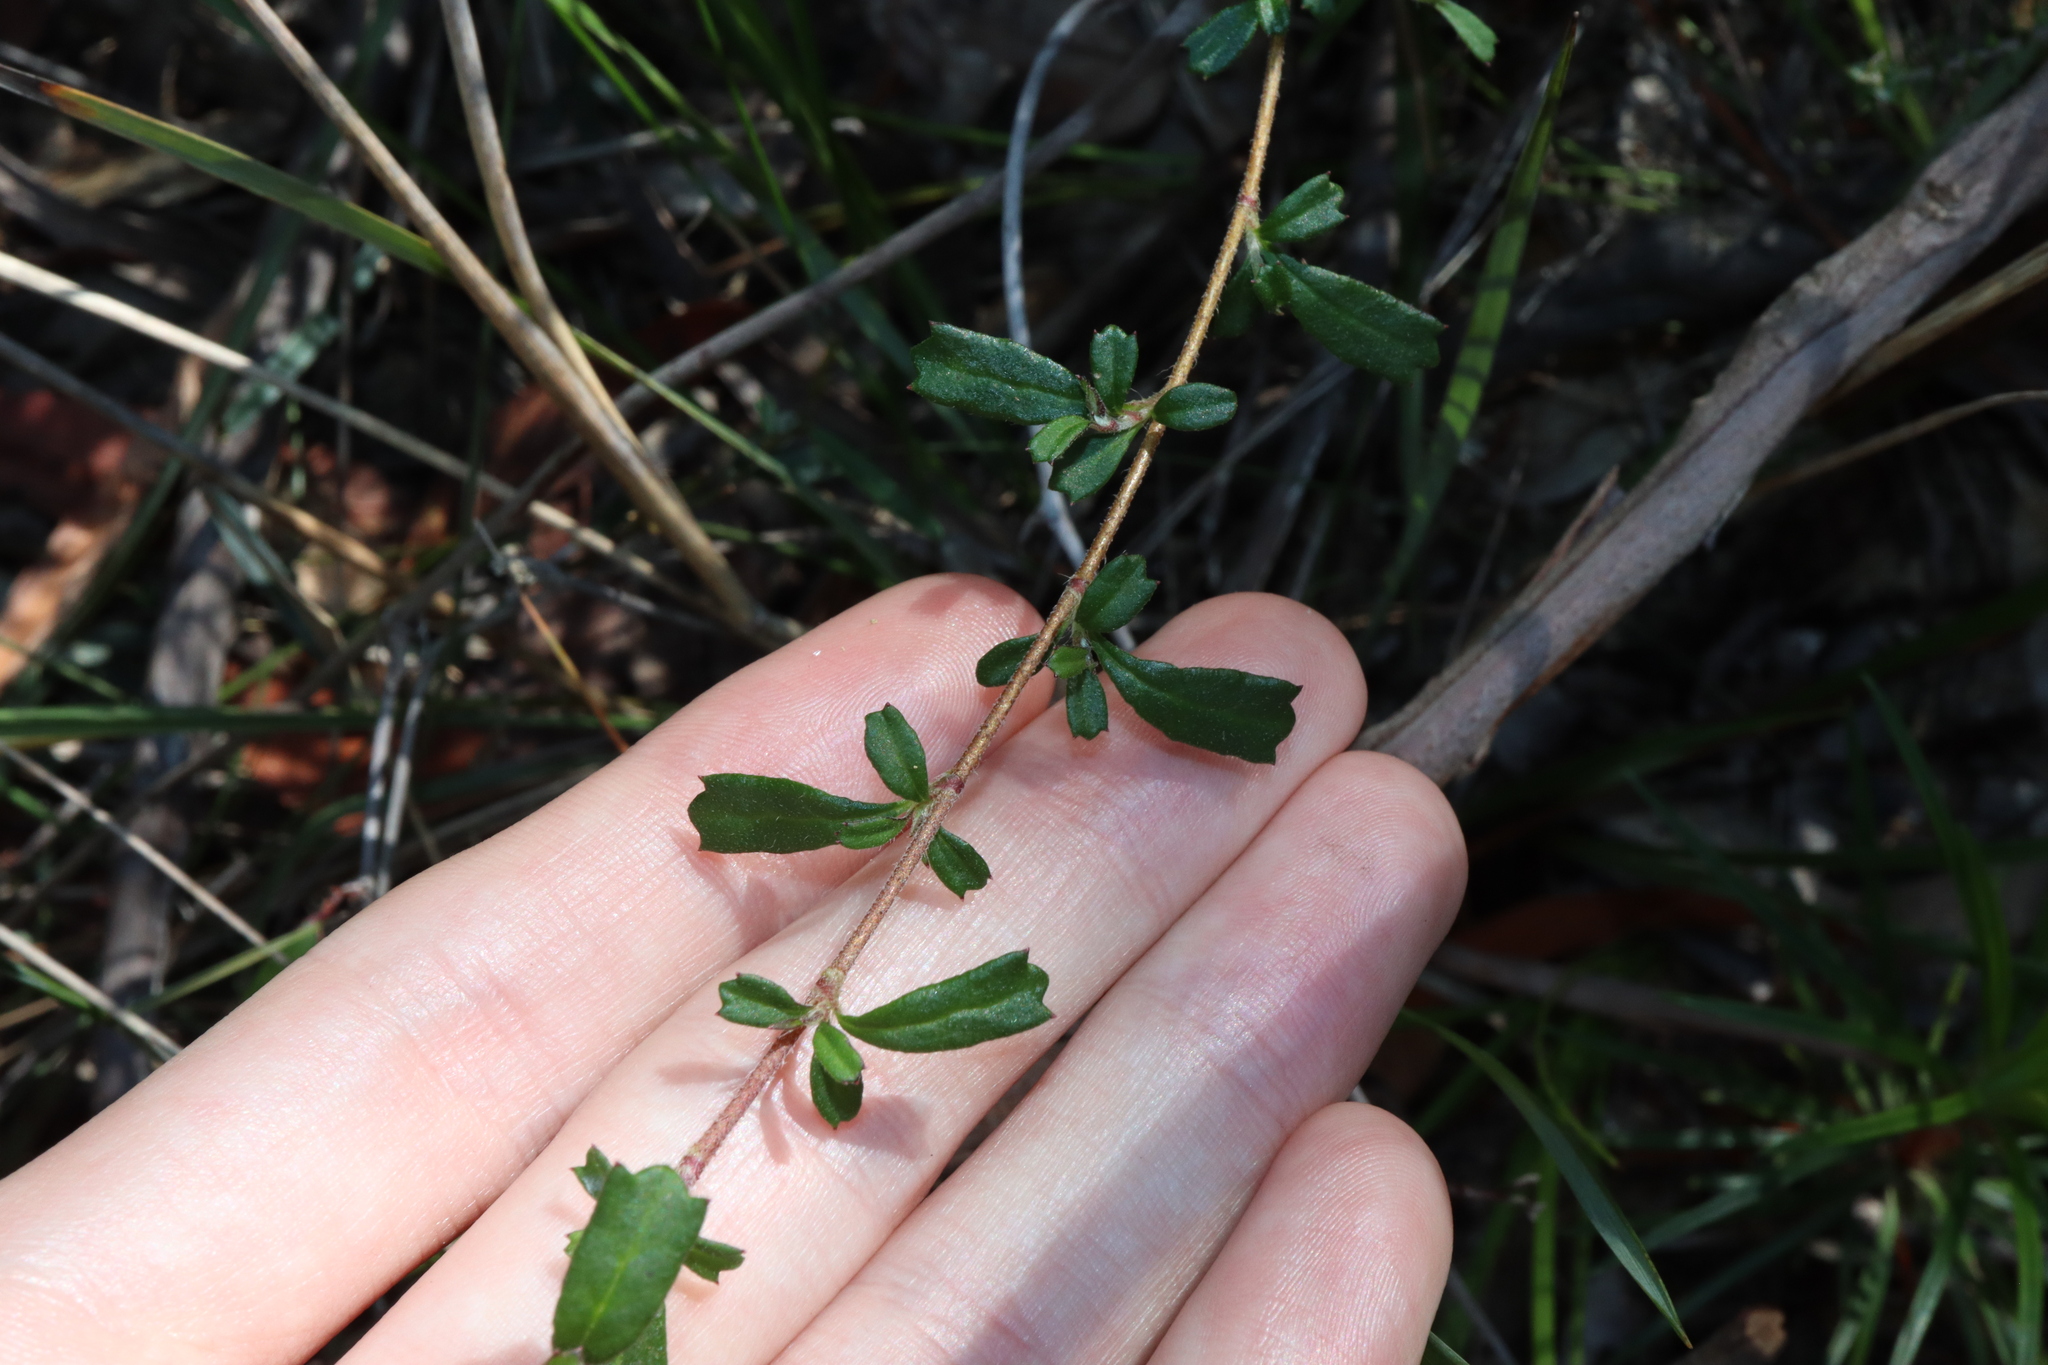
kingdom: Plantae
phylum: Tracheophyta
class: Magnoliopsida
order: Apiales
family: Apiaceae
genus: Xanthosia
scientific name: Xanthosia tridentata
